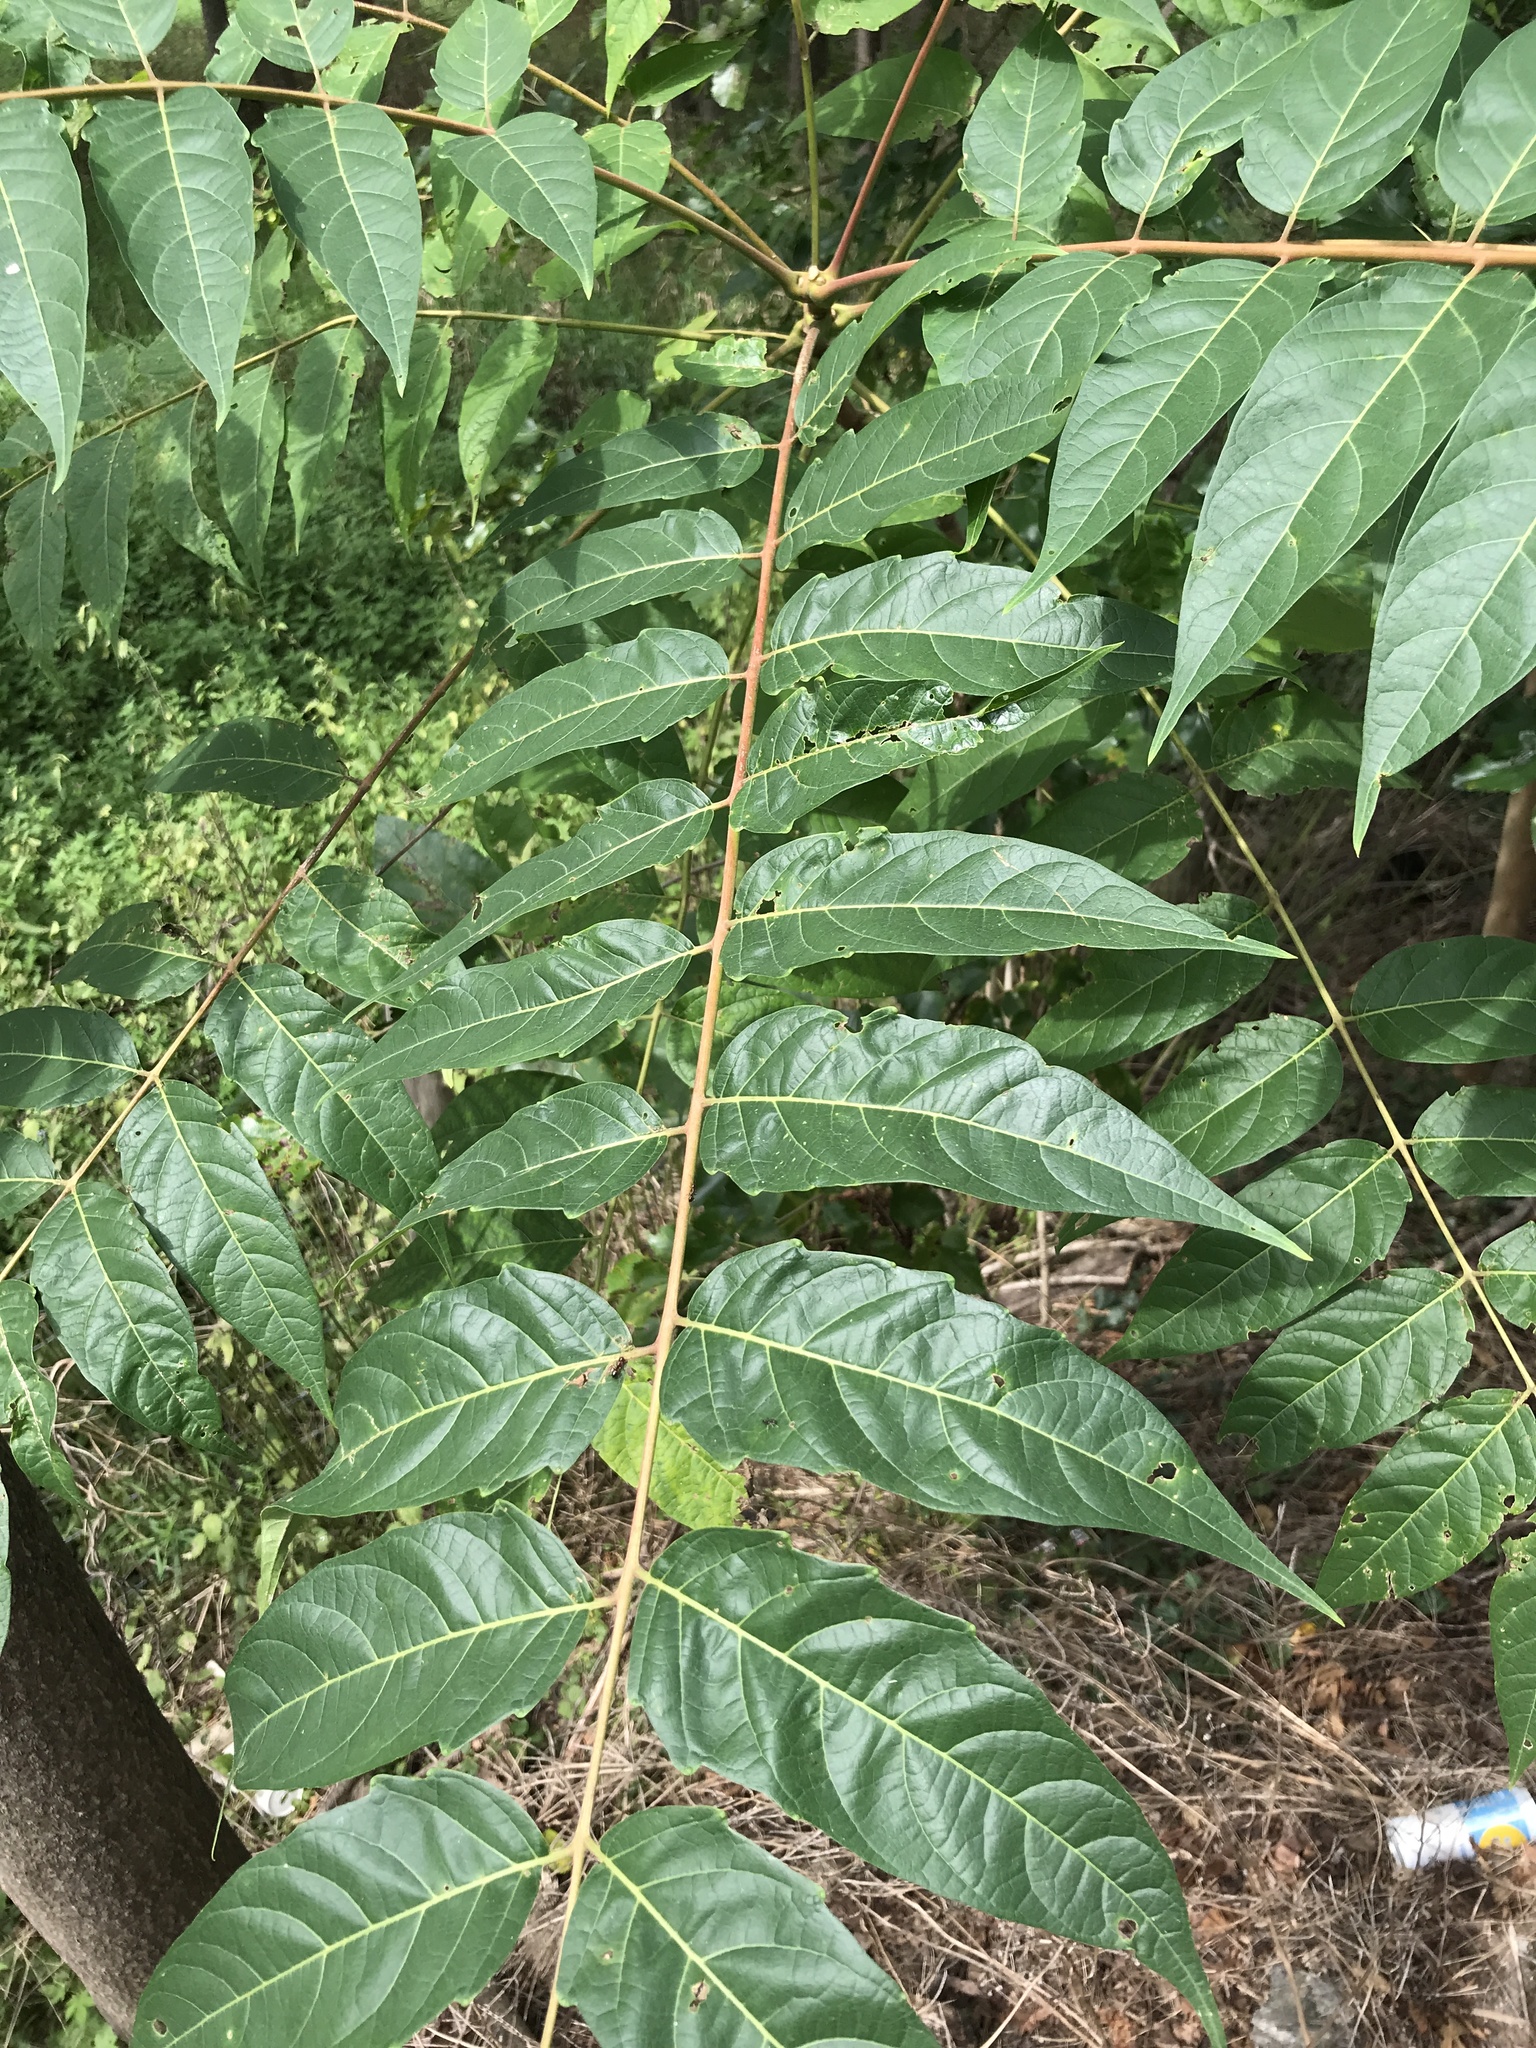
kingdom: Plantae
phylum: Tracheophyta
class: Magnoliopsida
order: Sapindales
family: Simaroubaceae
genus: Ailanthus
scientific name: Ailanthus altissima
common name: Tree-of-heaven
